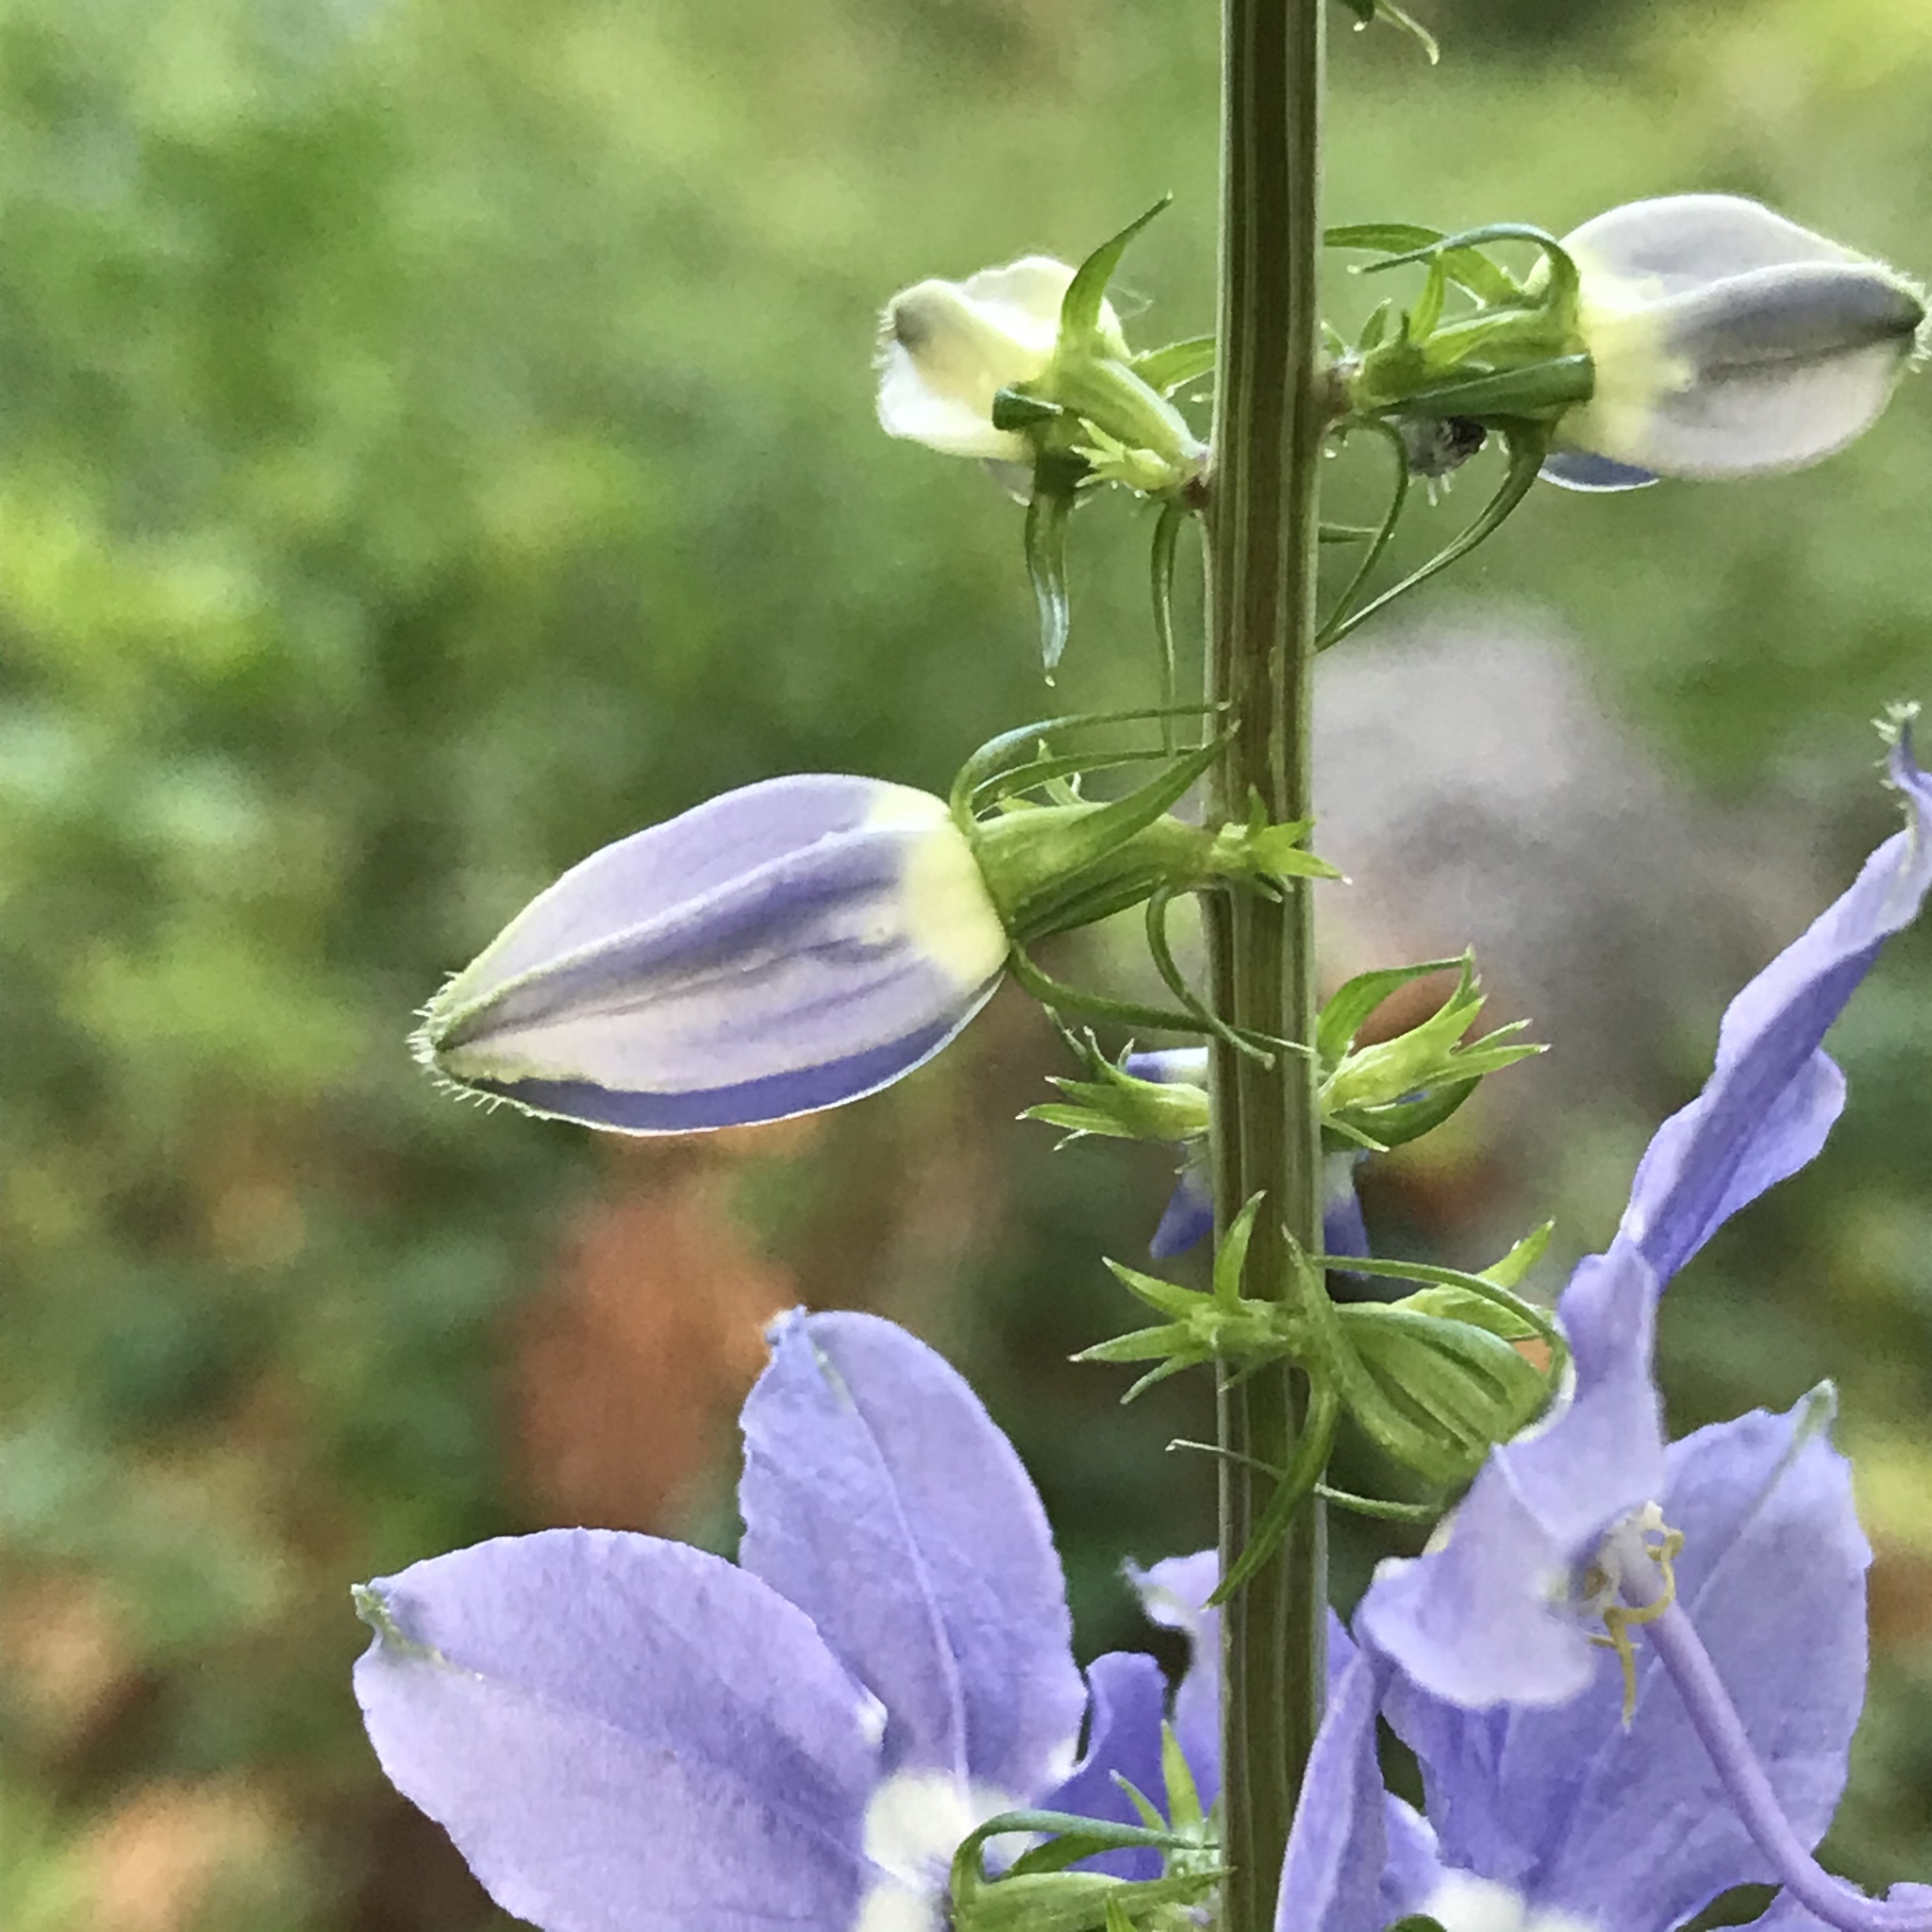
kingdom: Plantae
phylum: Tracheophyta
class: Magnoliopsida
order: Asterales
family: Campanulaceae
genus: Campanulastrum
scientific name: Campanulastrum americanum
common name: American bellflower
